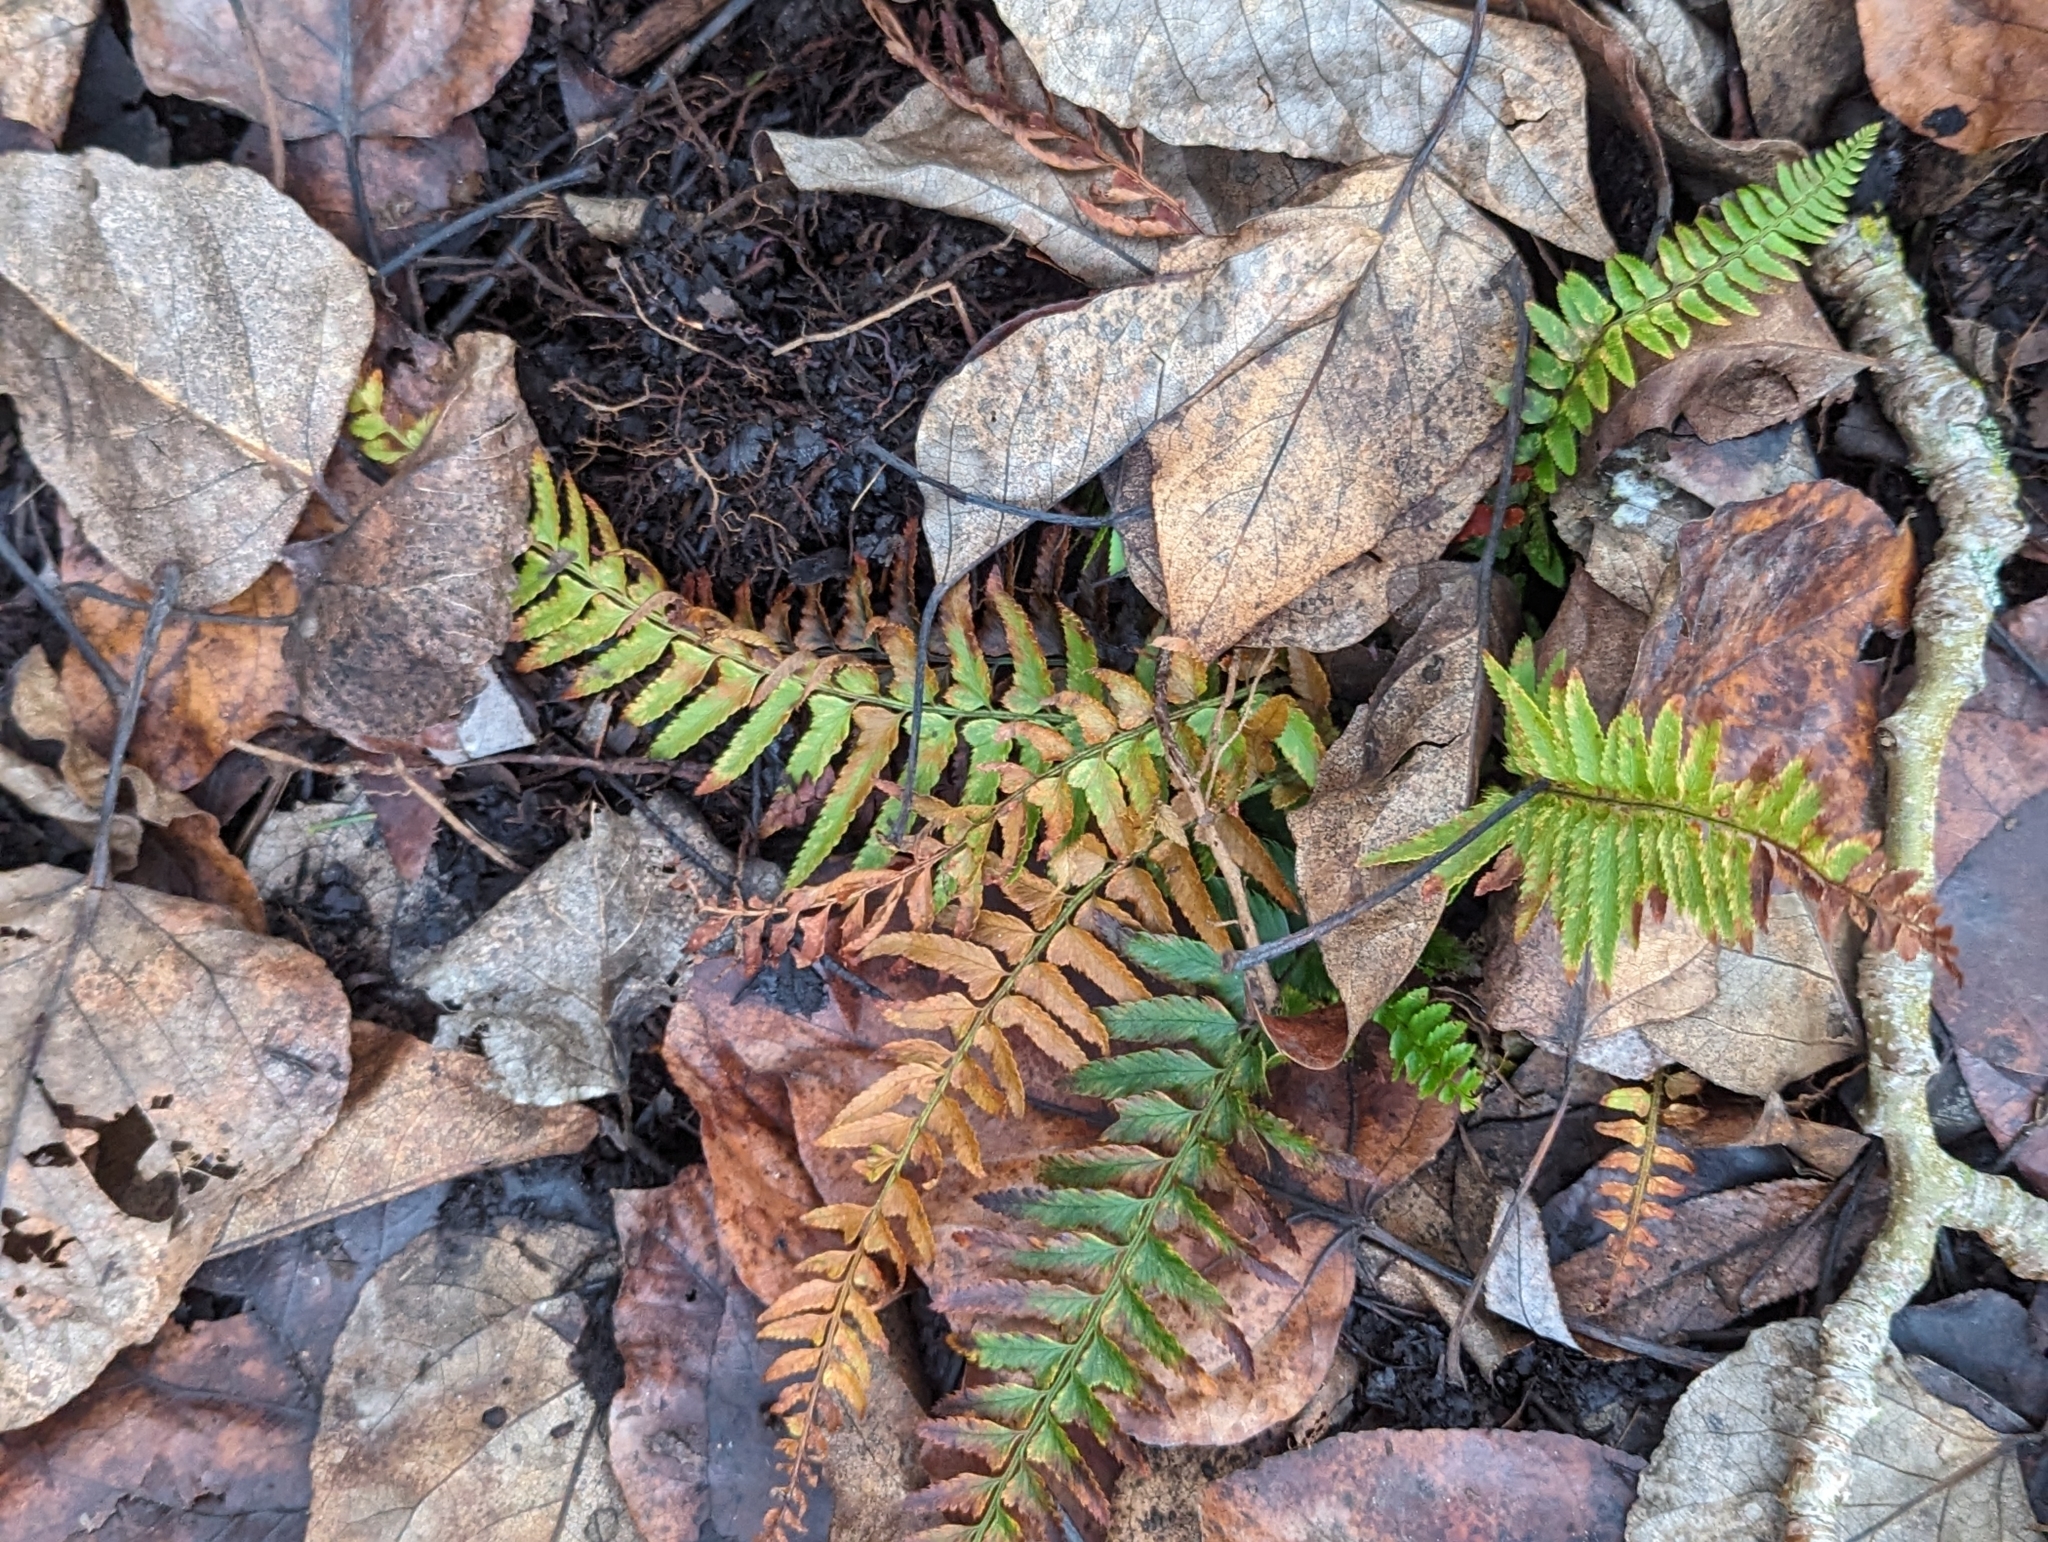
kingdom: Plantae
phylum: Tracheophyta
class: Polypodiopsida
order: Polypodiales
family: Dryopteridaceae
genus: Polystichum
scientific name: Polystichum munitum
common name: Western sword-fern
